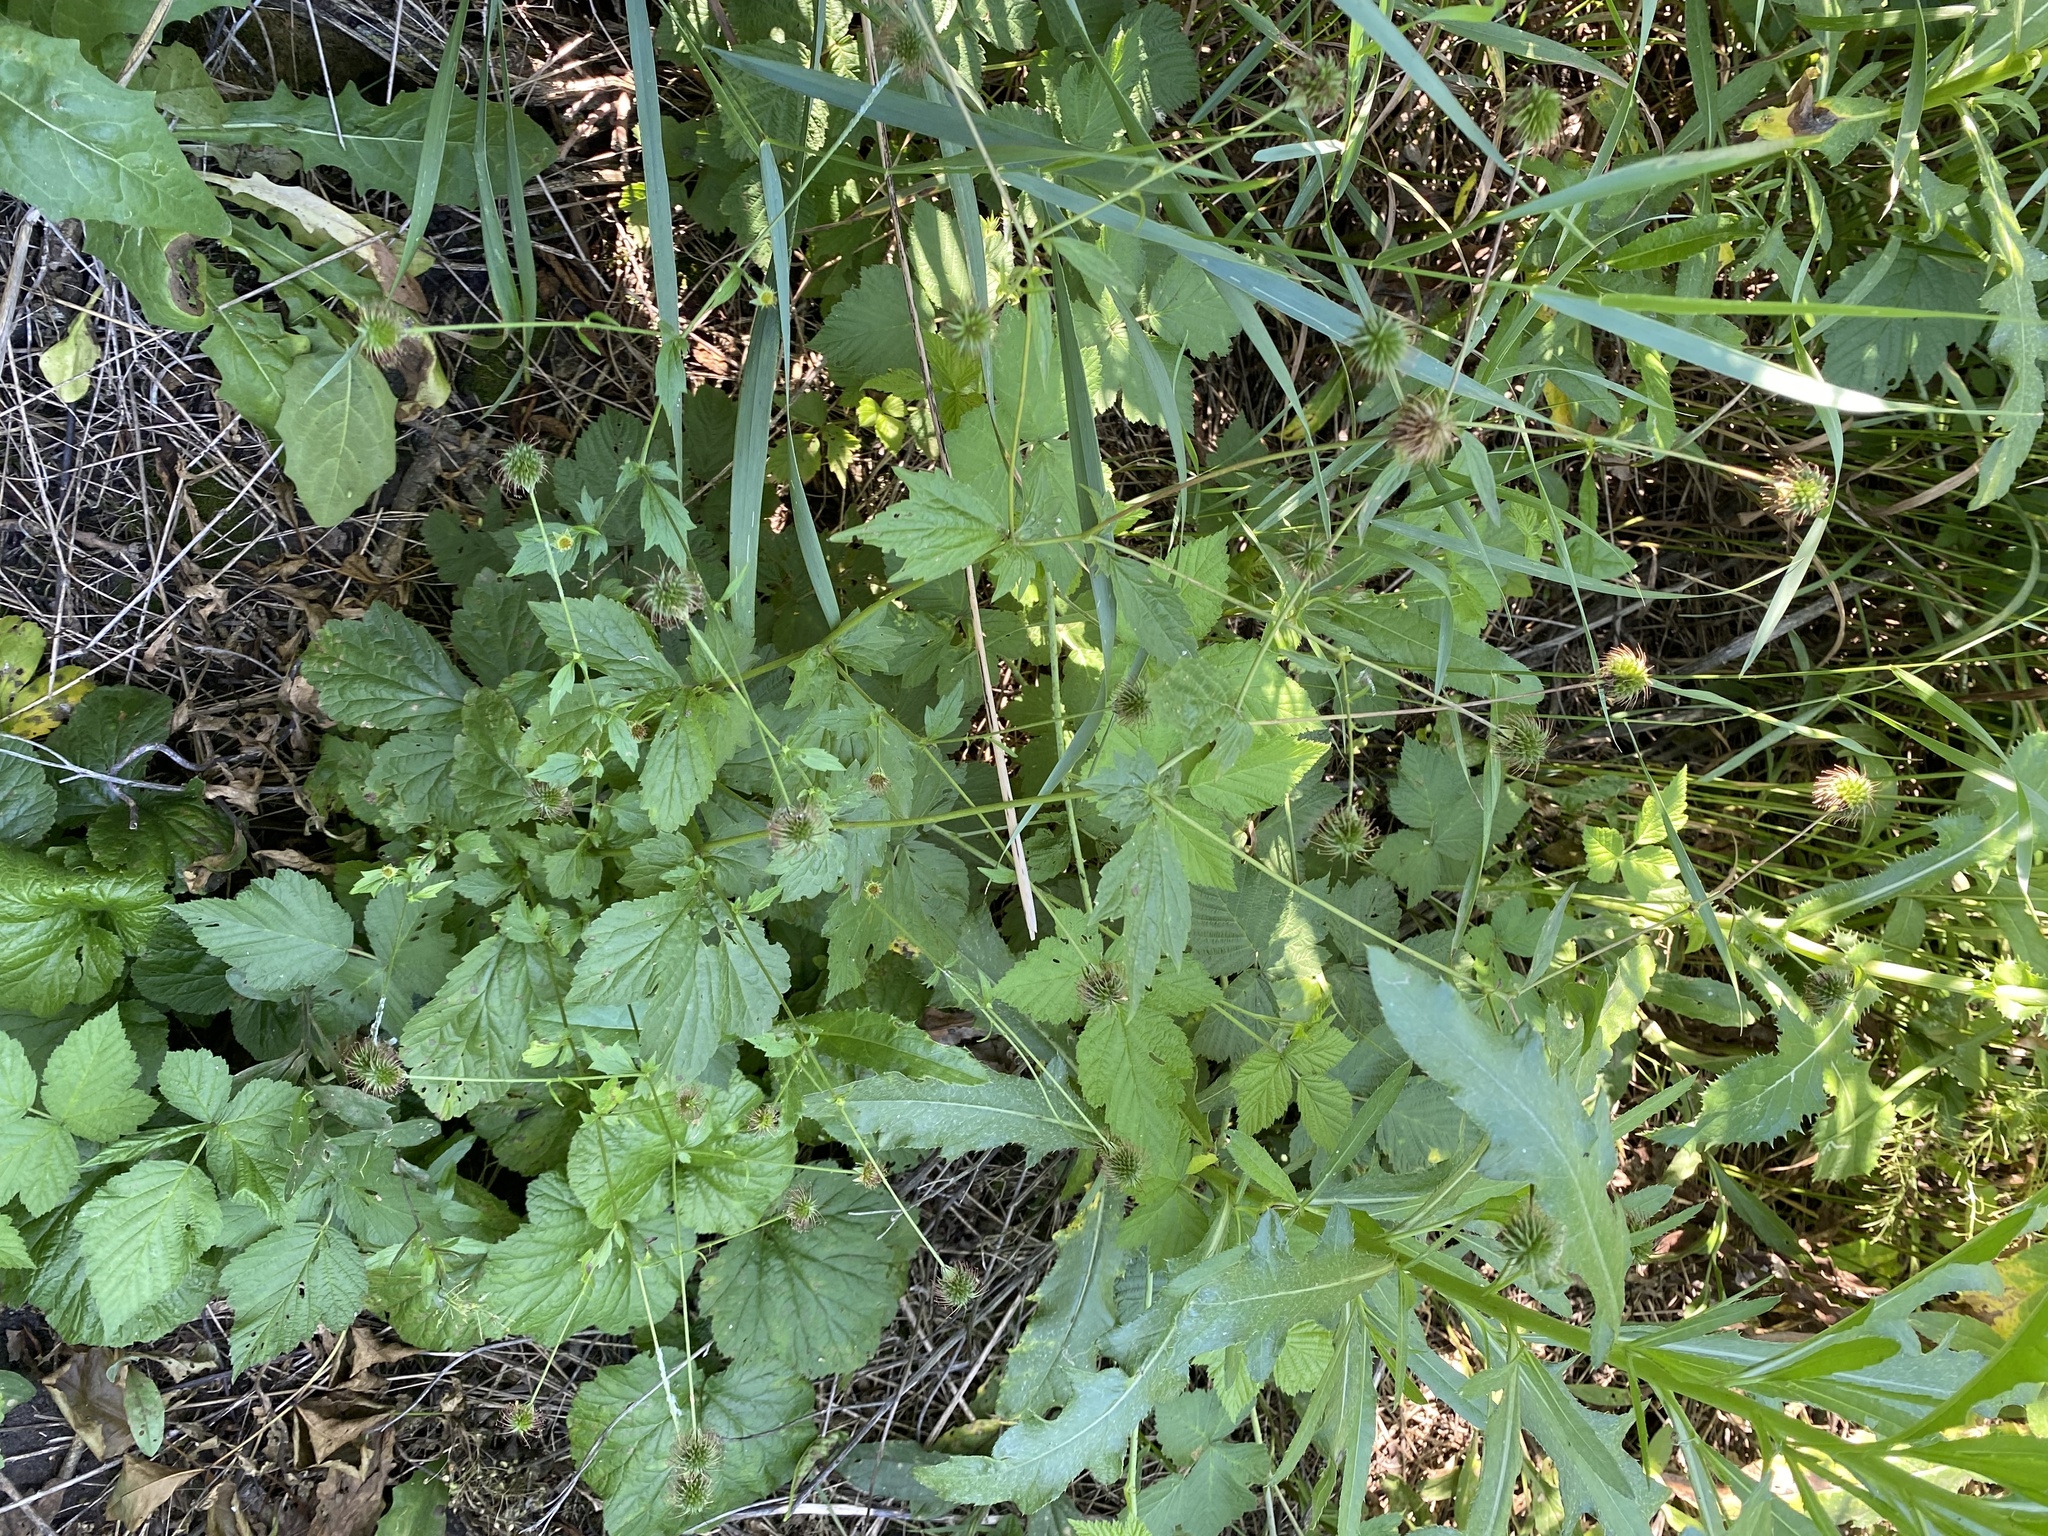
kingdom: Plantae
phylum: Tracheophyta
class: Magnoliopsida
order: Rosales
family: Rosaceae
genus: Geum
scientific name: Geum urbanum
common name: Wood avens
